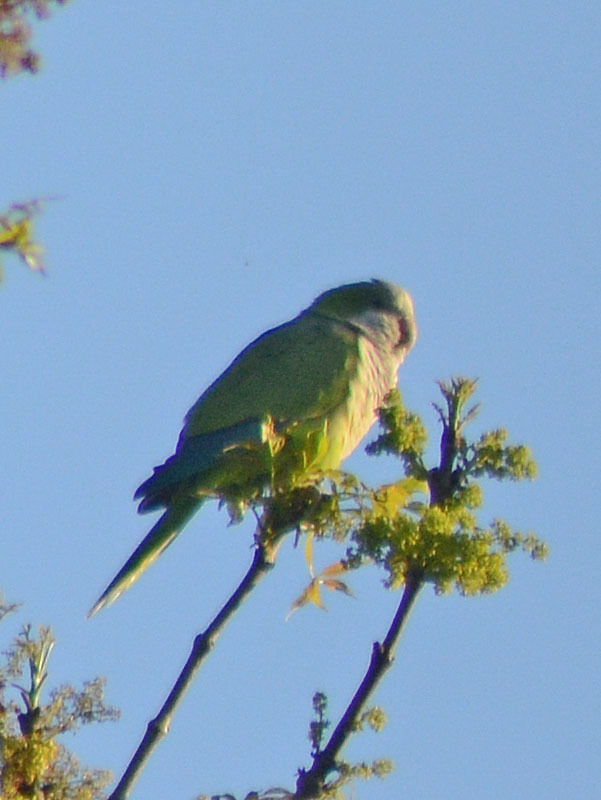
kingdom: Animalia
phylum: Chordata
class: Aves
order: Psittaciformes
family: Psittacidae
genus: Myiopsitta
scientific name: Myiopsitta monachus
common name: Monk parakeet
